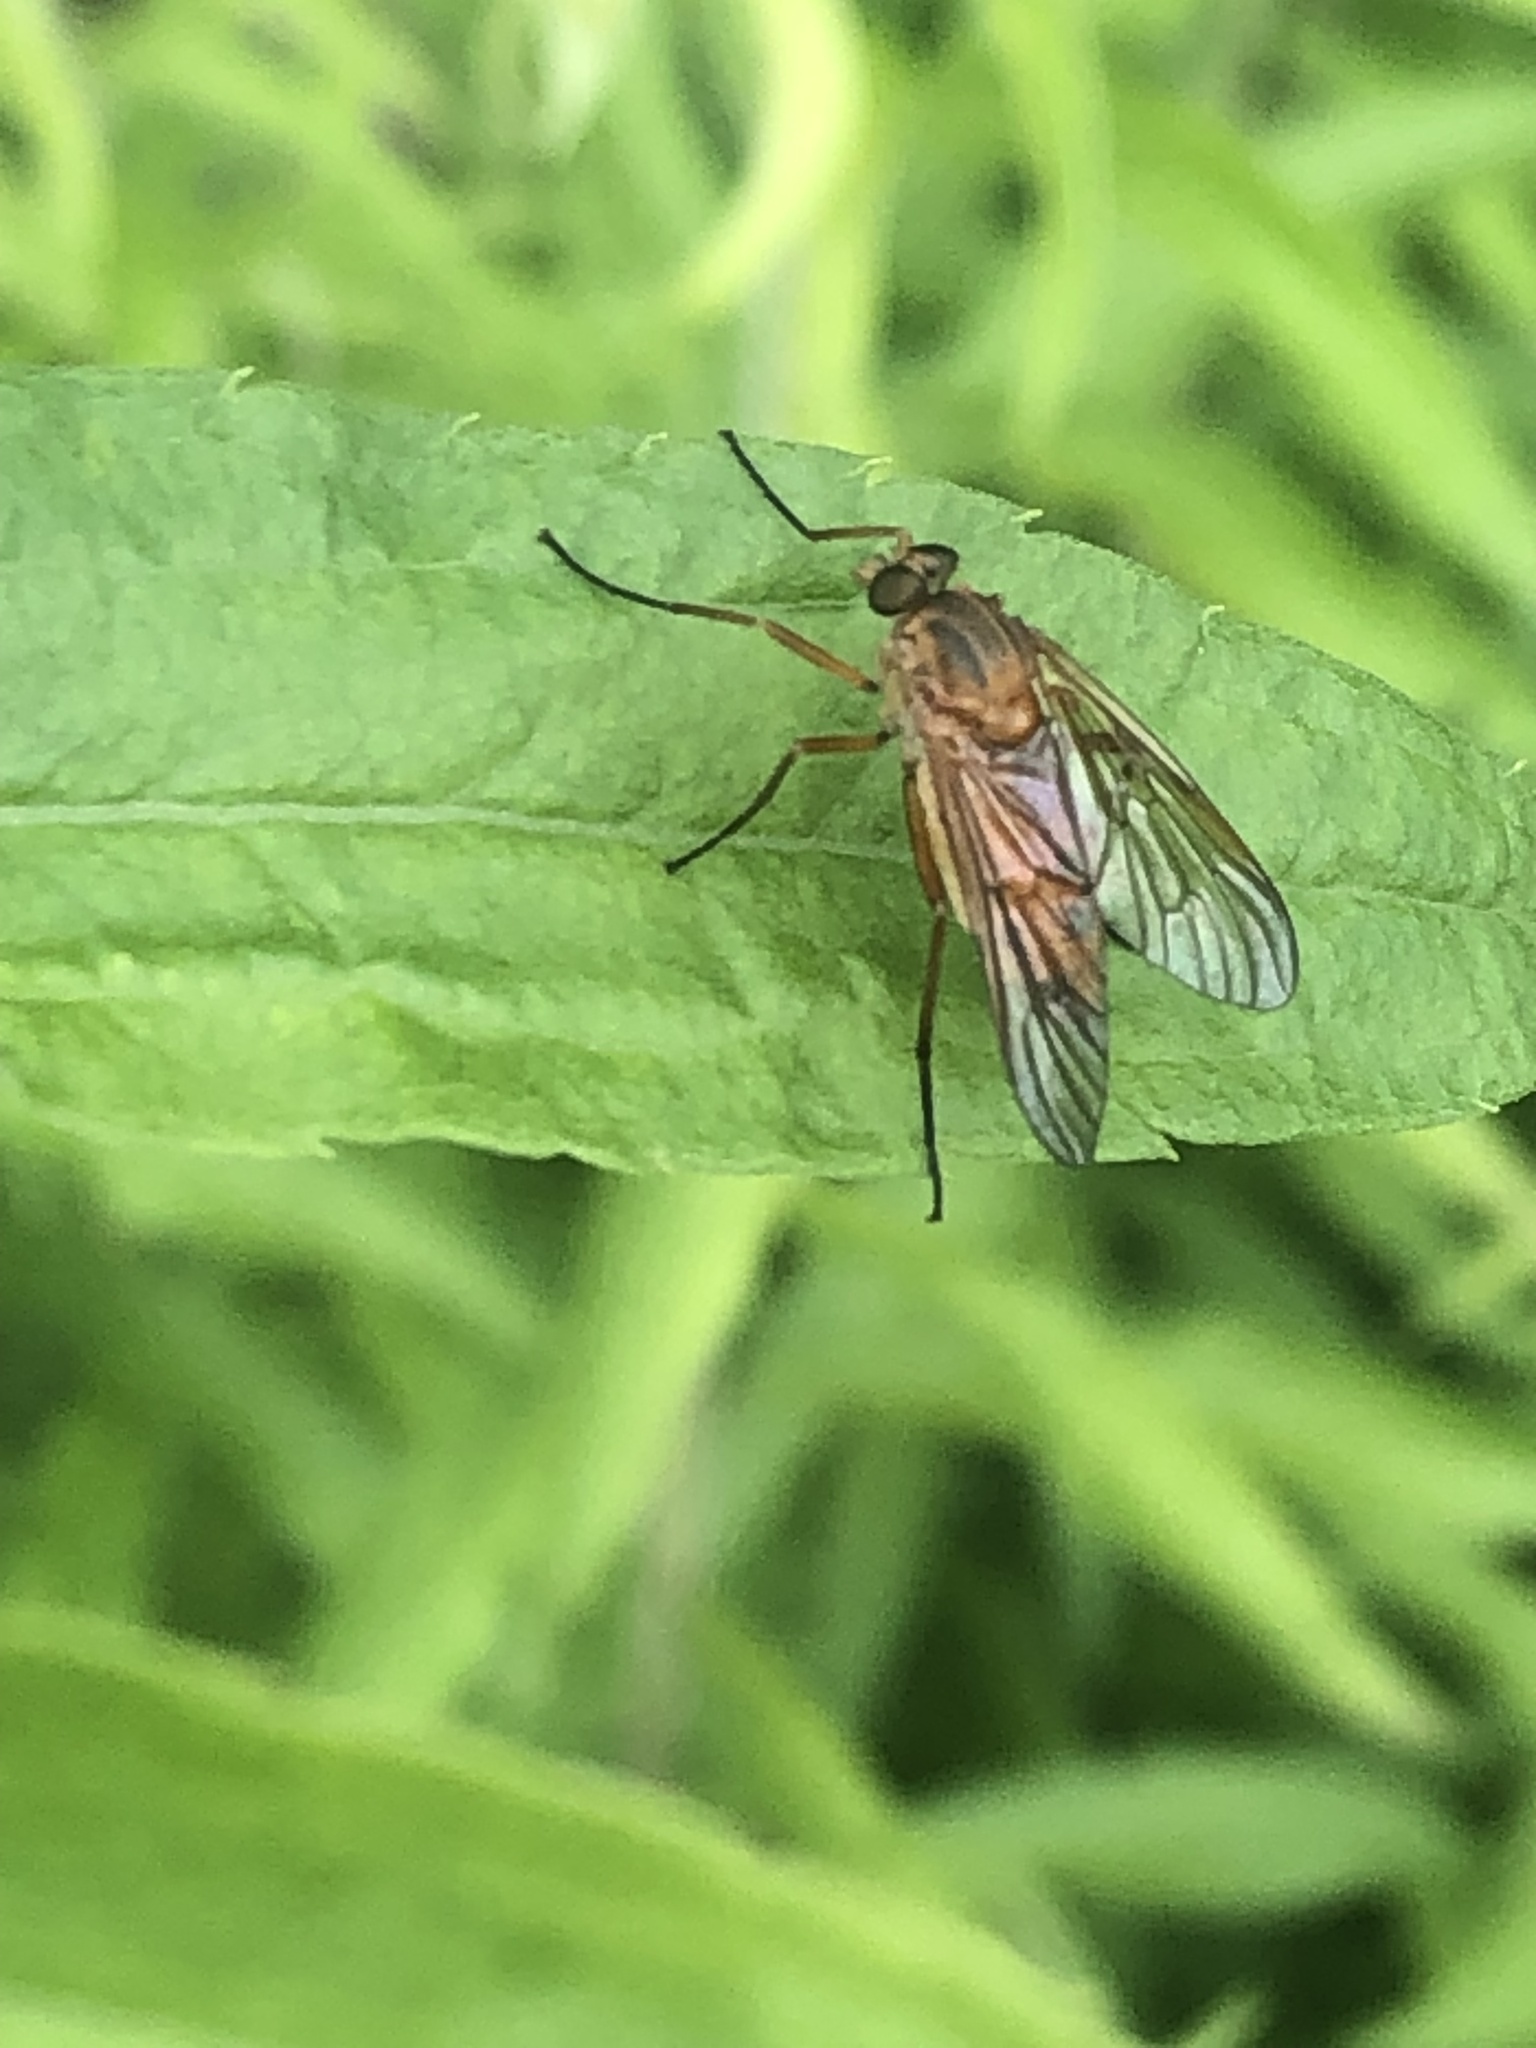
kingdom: Animalia
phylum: Arthropoda
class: Insecta
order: Diptera
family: Rhagionidae
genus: Rhagio
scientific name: Rhagio tringaria
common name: Marsh snipefly
